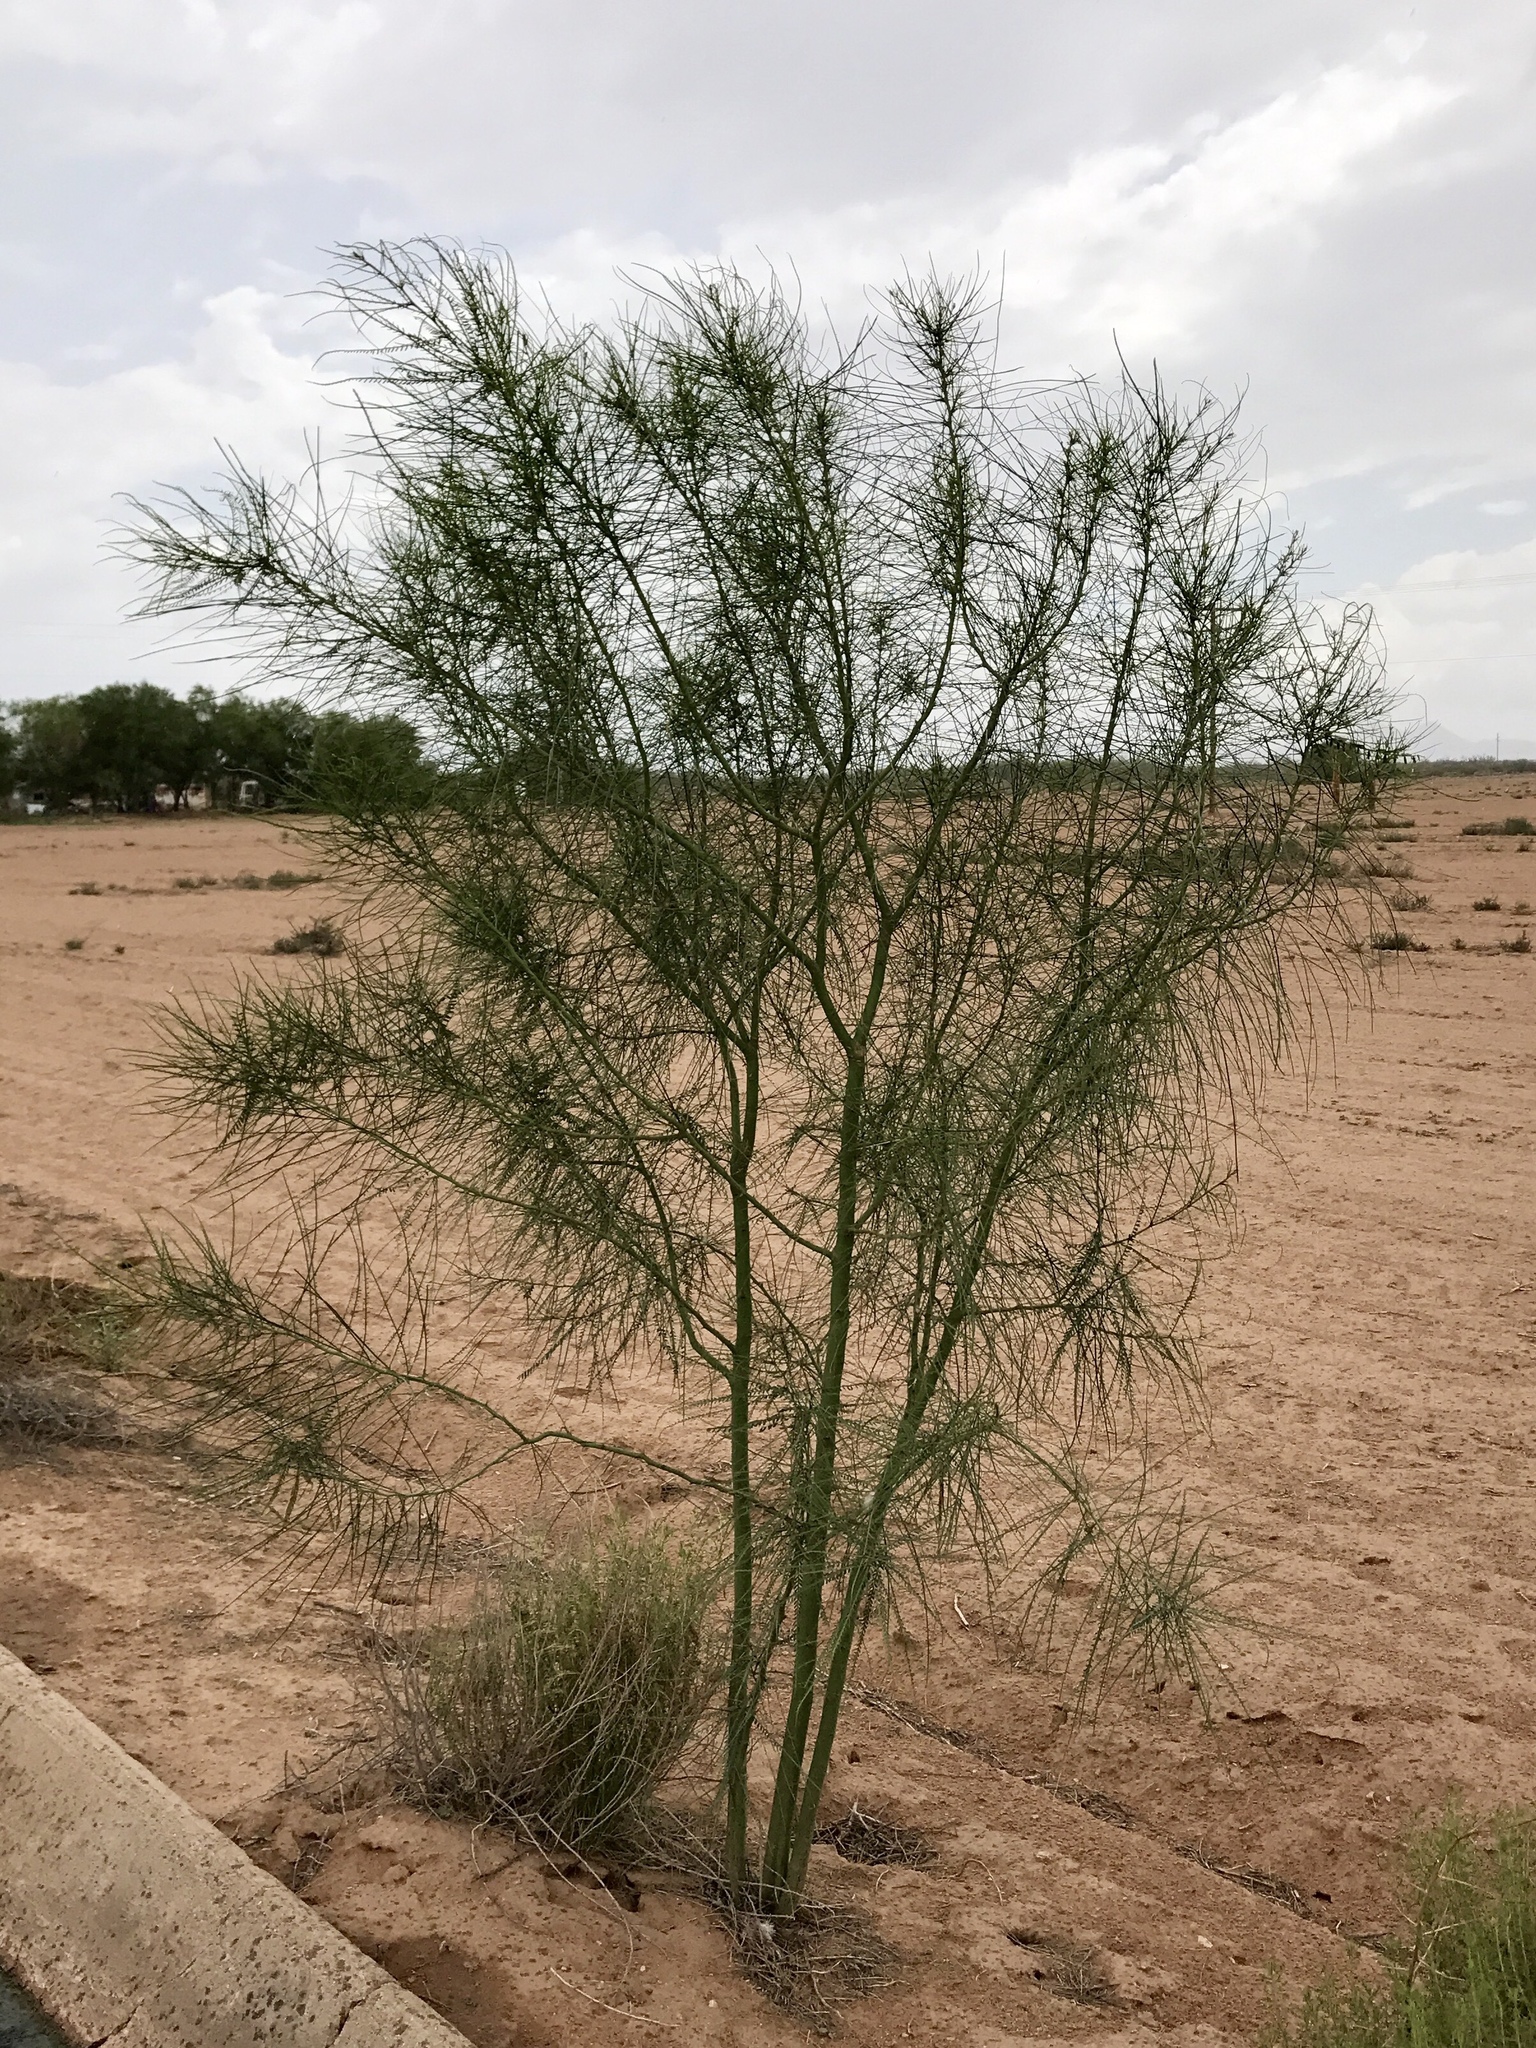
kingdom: Plantae
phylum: Tracheophyta
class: Magnoliopsida
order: Fabales
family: Fabaceae
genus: Parkinsonia
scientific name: Parkinsonia aculeata
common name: Jerusalem thorn
